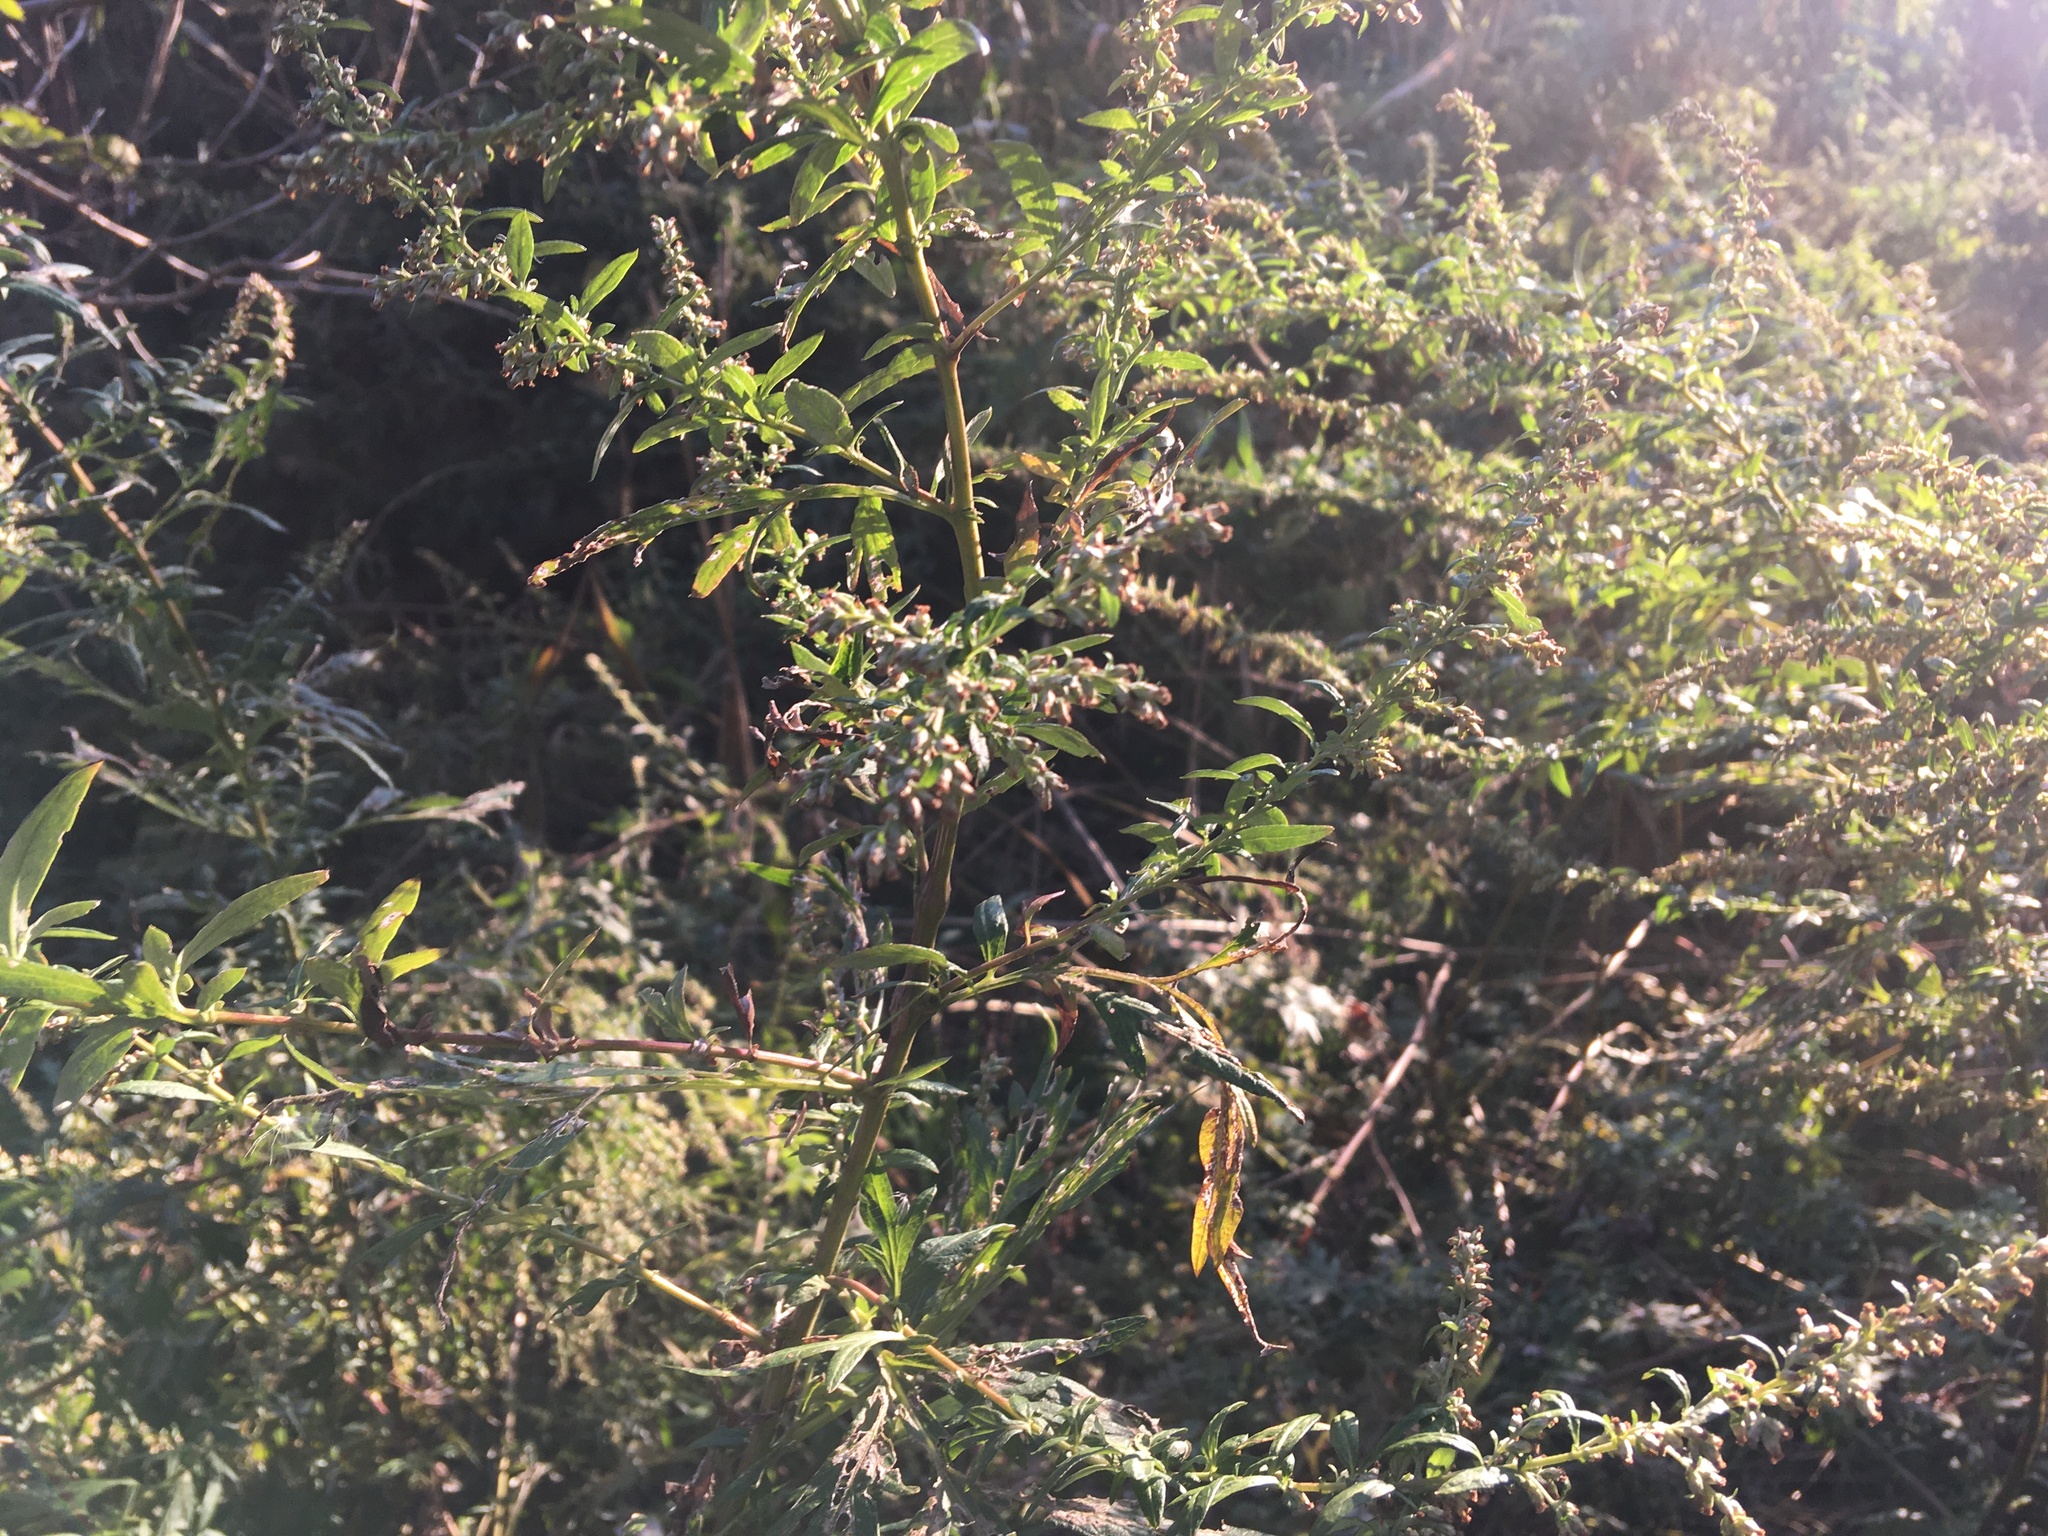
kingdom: Plantae
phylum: Tracheophyta
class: Magnoliopsida
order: Asterales
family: Asteraceae
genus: Artemisia
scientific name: Artemisia vulgaris
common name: Mugwort
